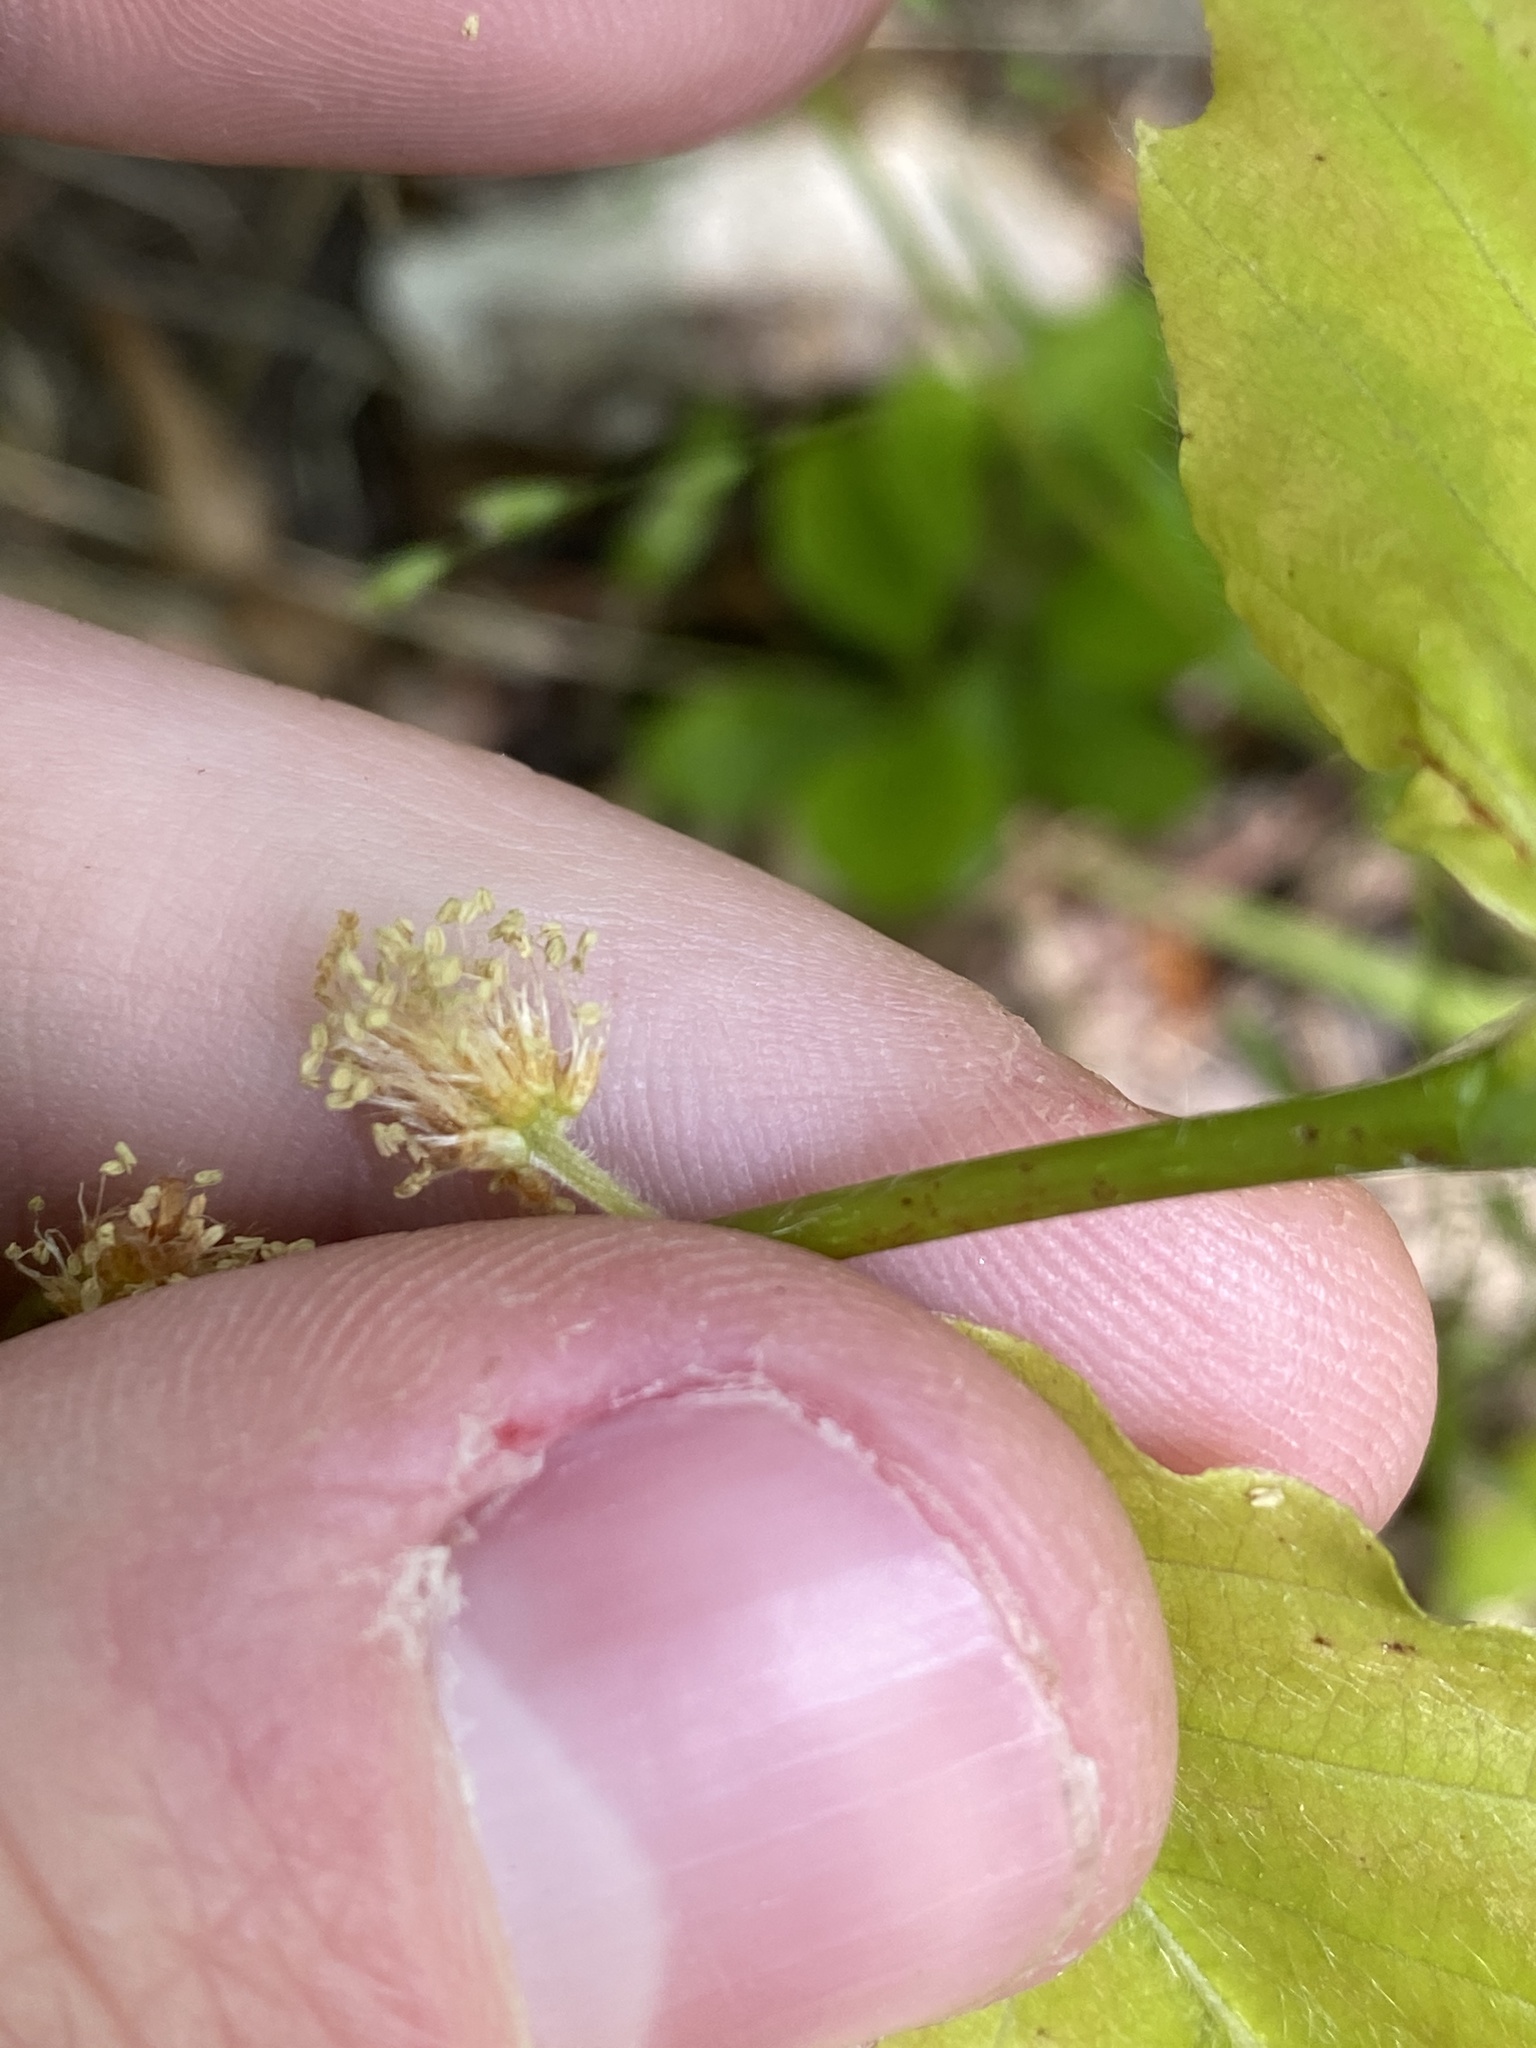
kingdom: Plantae
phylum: Tracheophyta
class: Magnoliopsida
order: Fagales
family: Fagaceae
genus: Fagus
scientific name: Fagus grandifolia
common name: American beech
